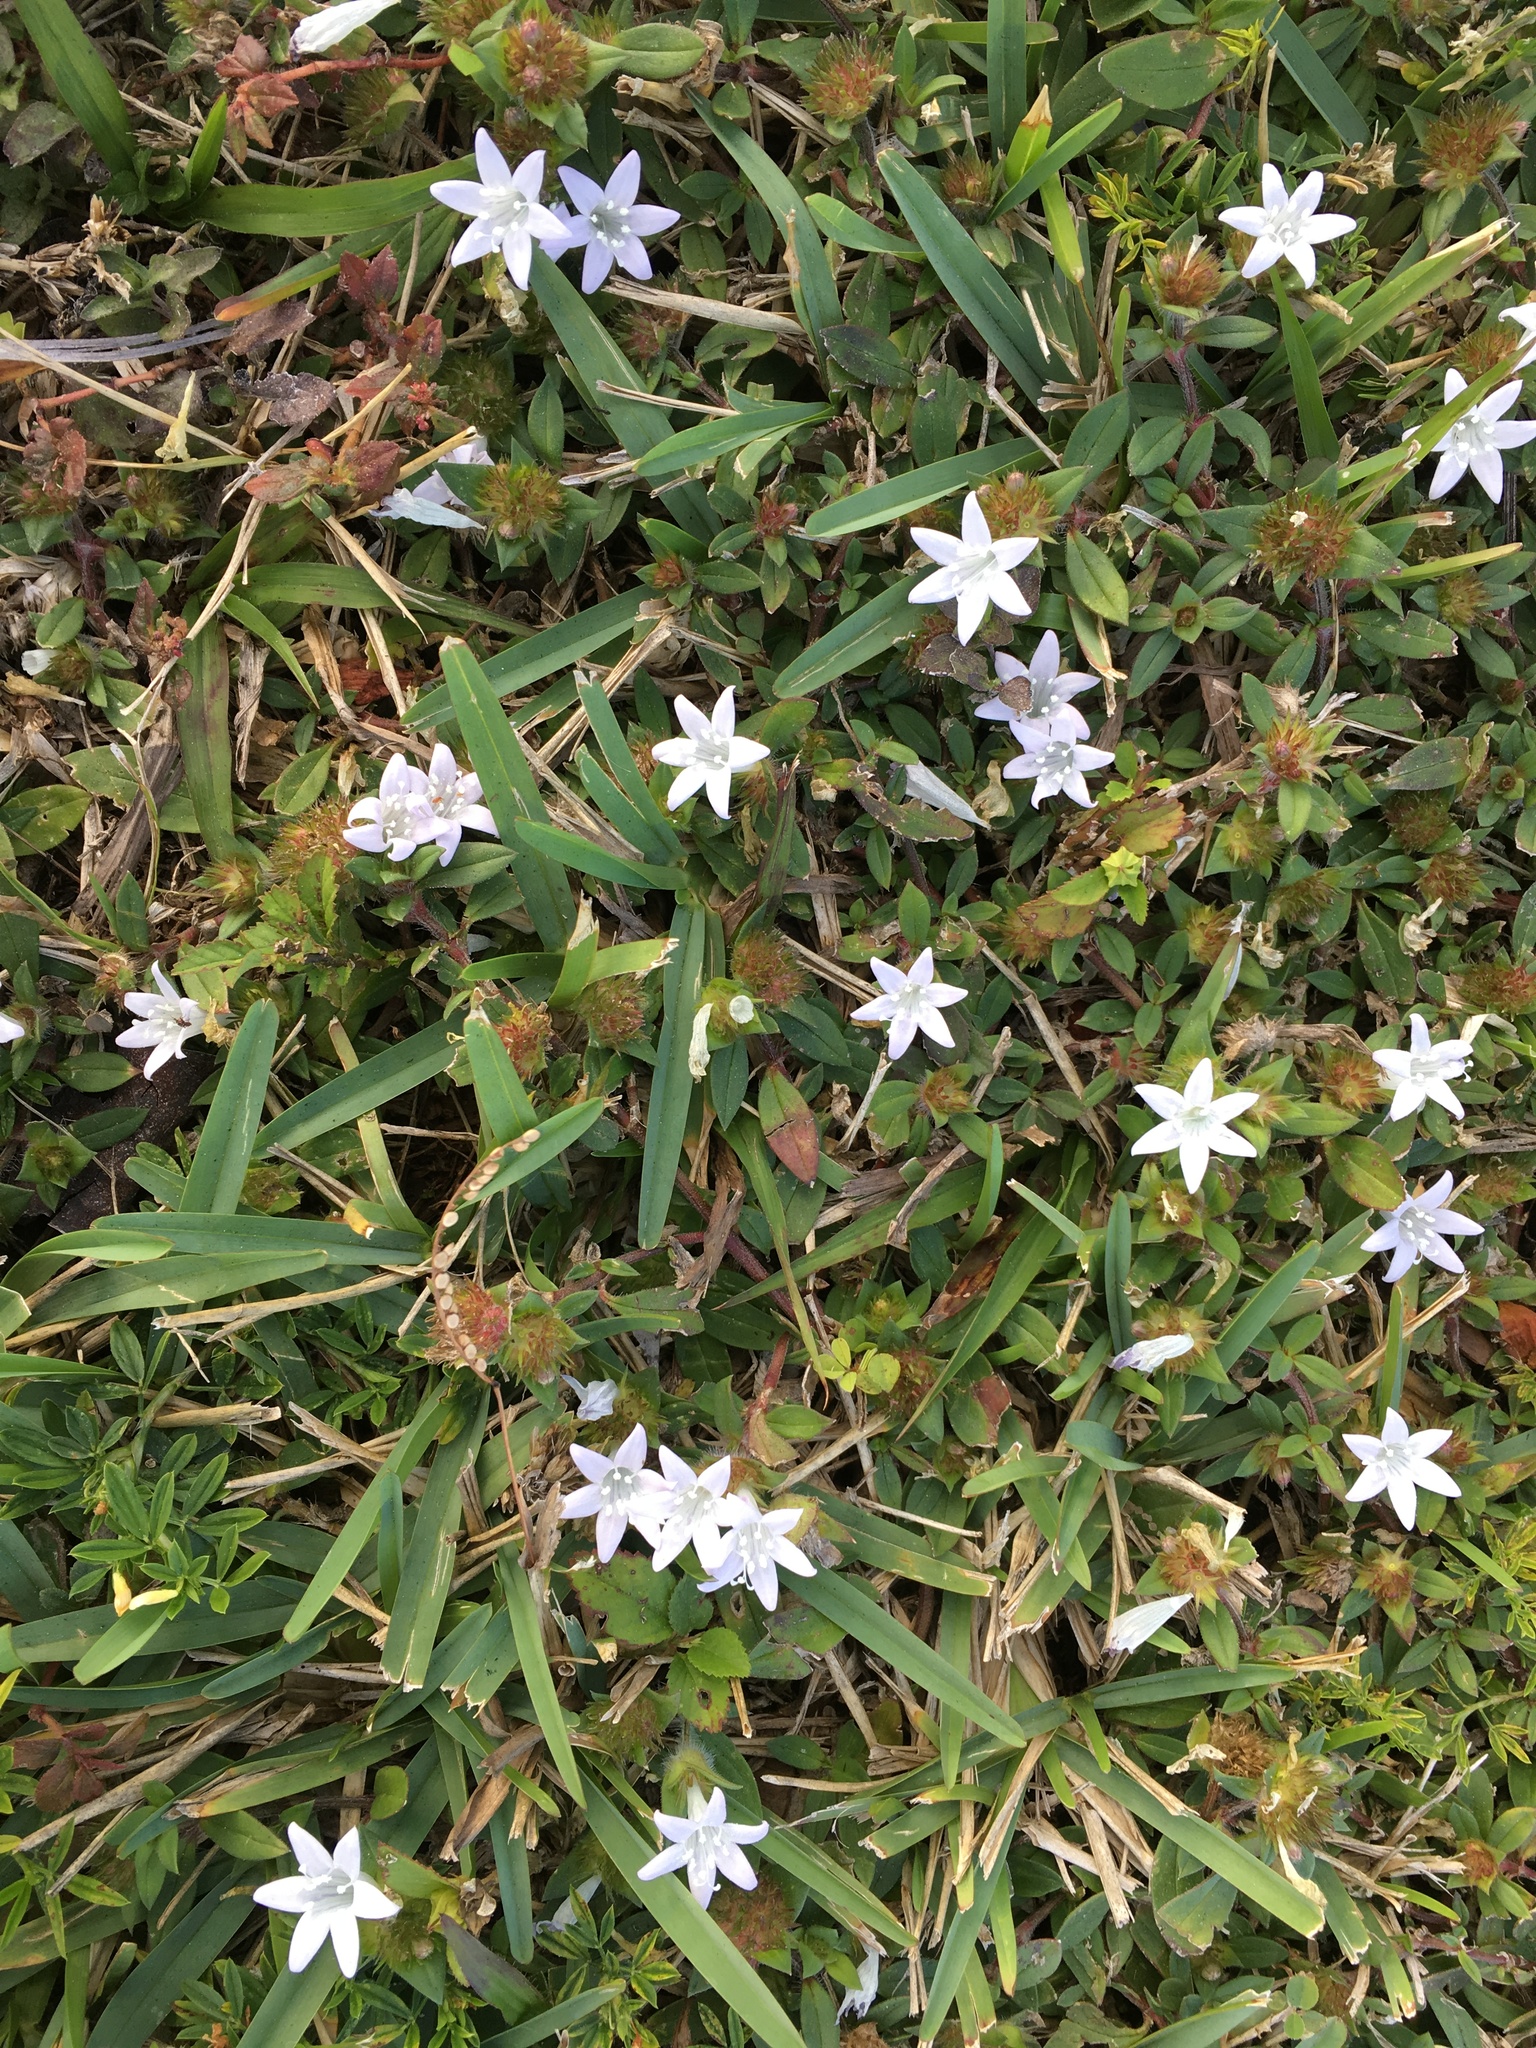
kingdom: Plantae
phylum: Tracheophyta
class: Magnoliopsida
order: Gentianales
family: Rubiaceae
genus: Richardia
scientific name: Richardia grandiflora
